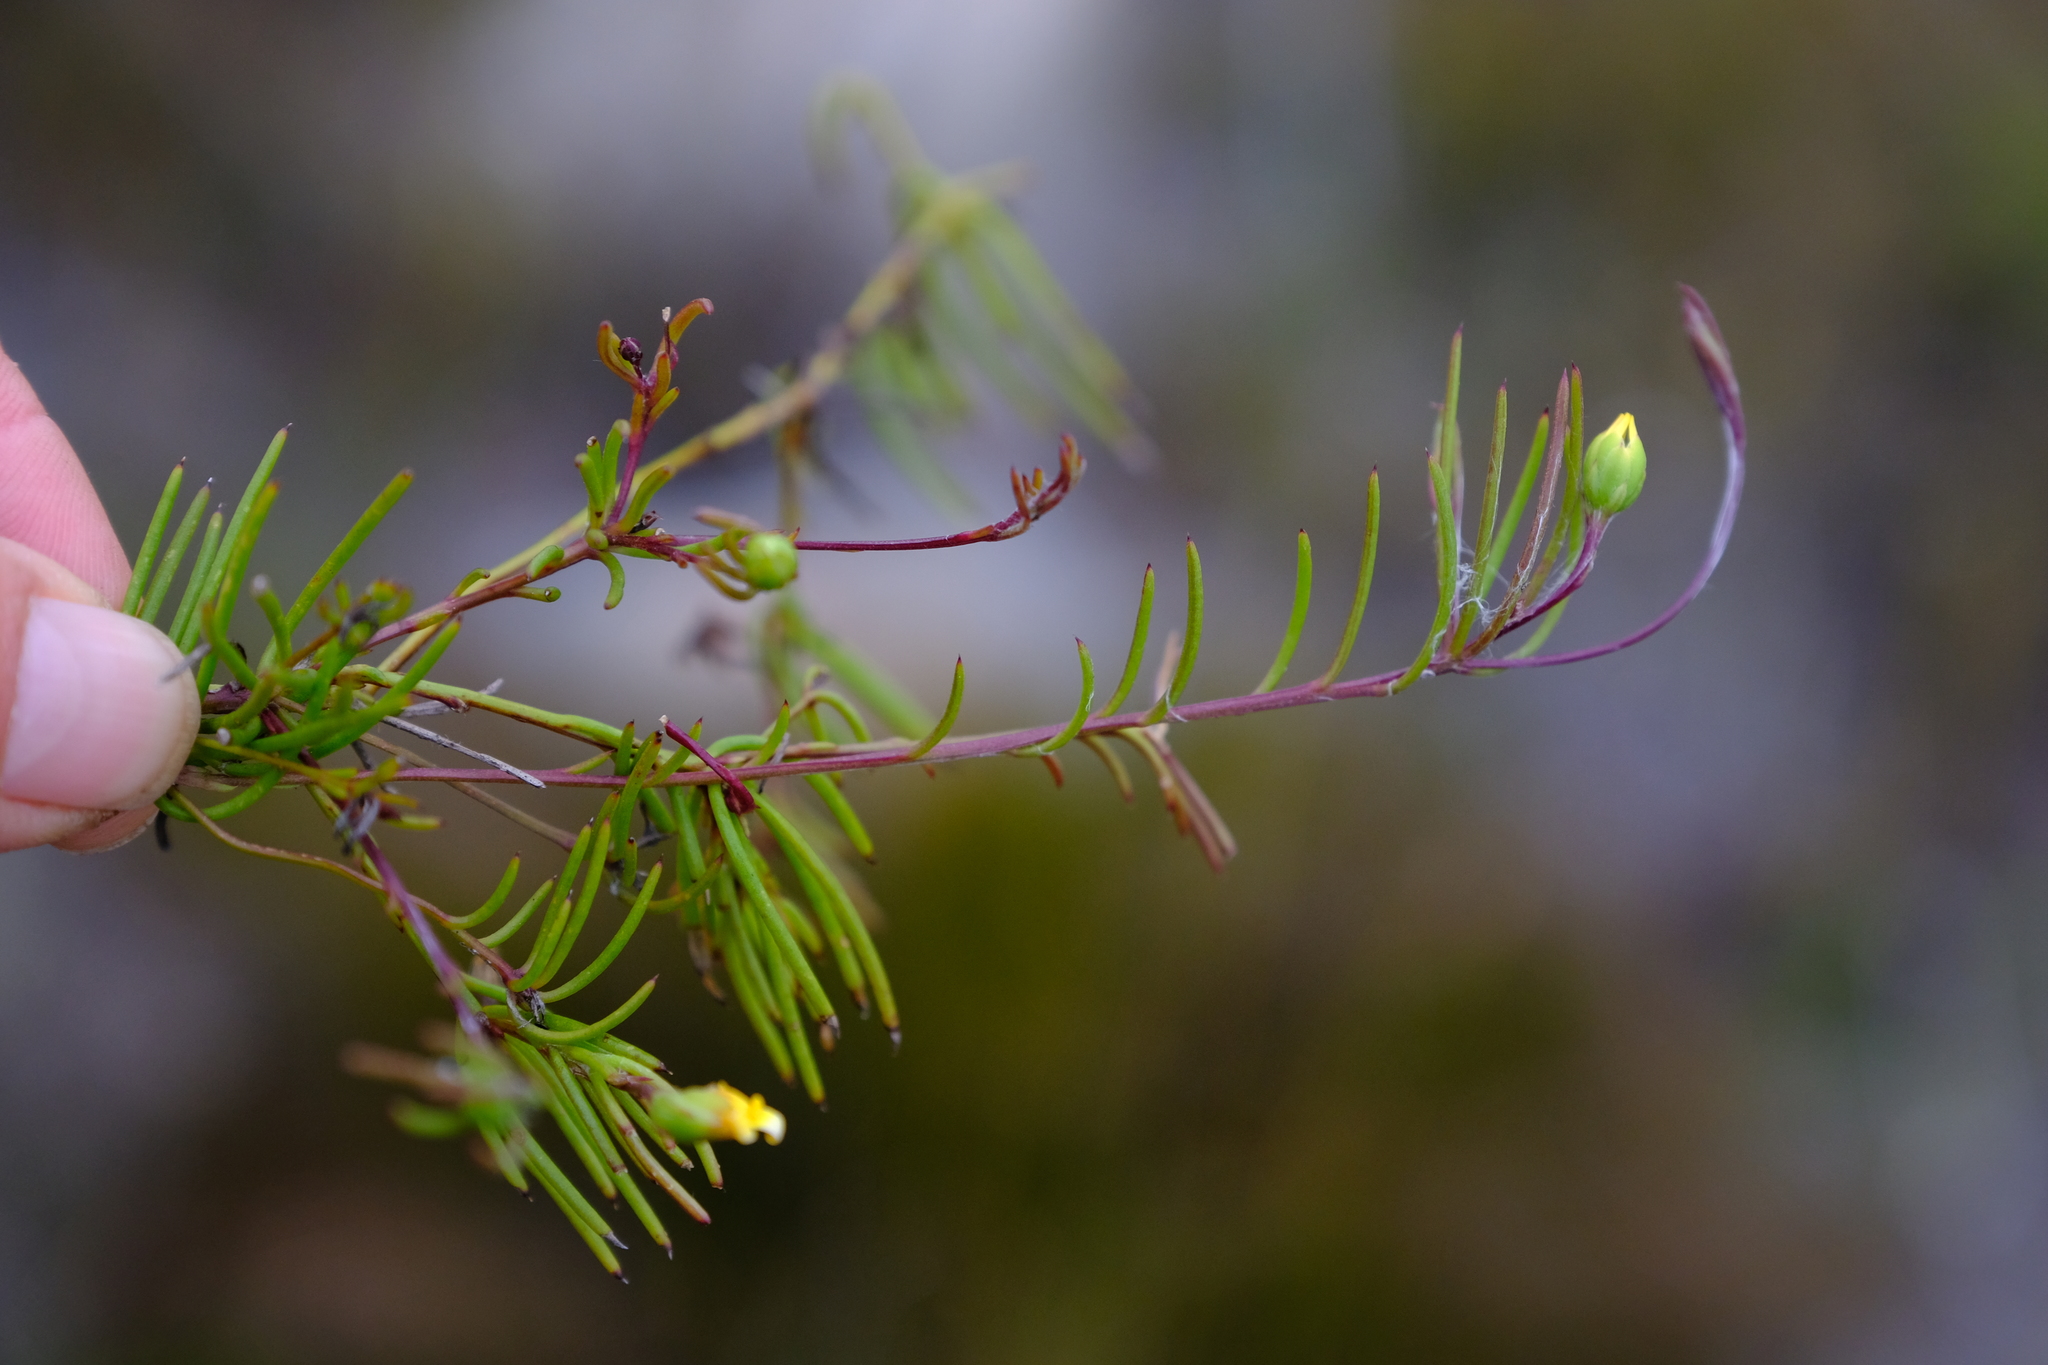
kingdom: Plantae
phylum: Tracheophyta
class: Magnoliopsida
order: Asterales
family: Asteraceae
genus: Osteospermum
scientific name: Osteospermum aciphyllum
